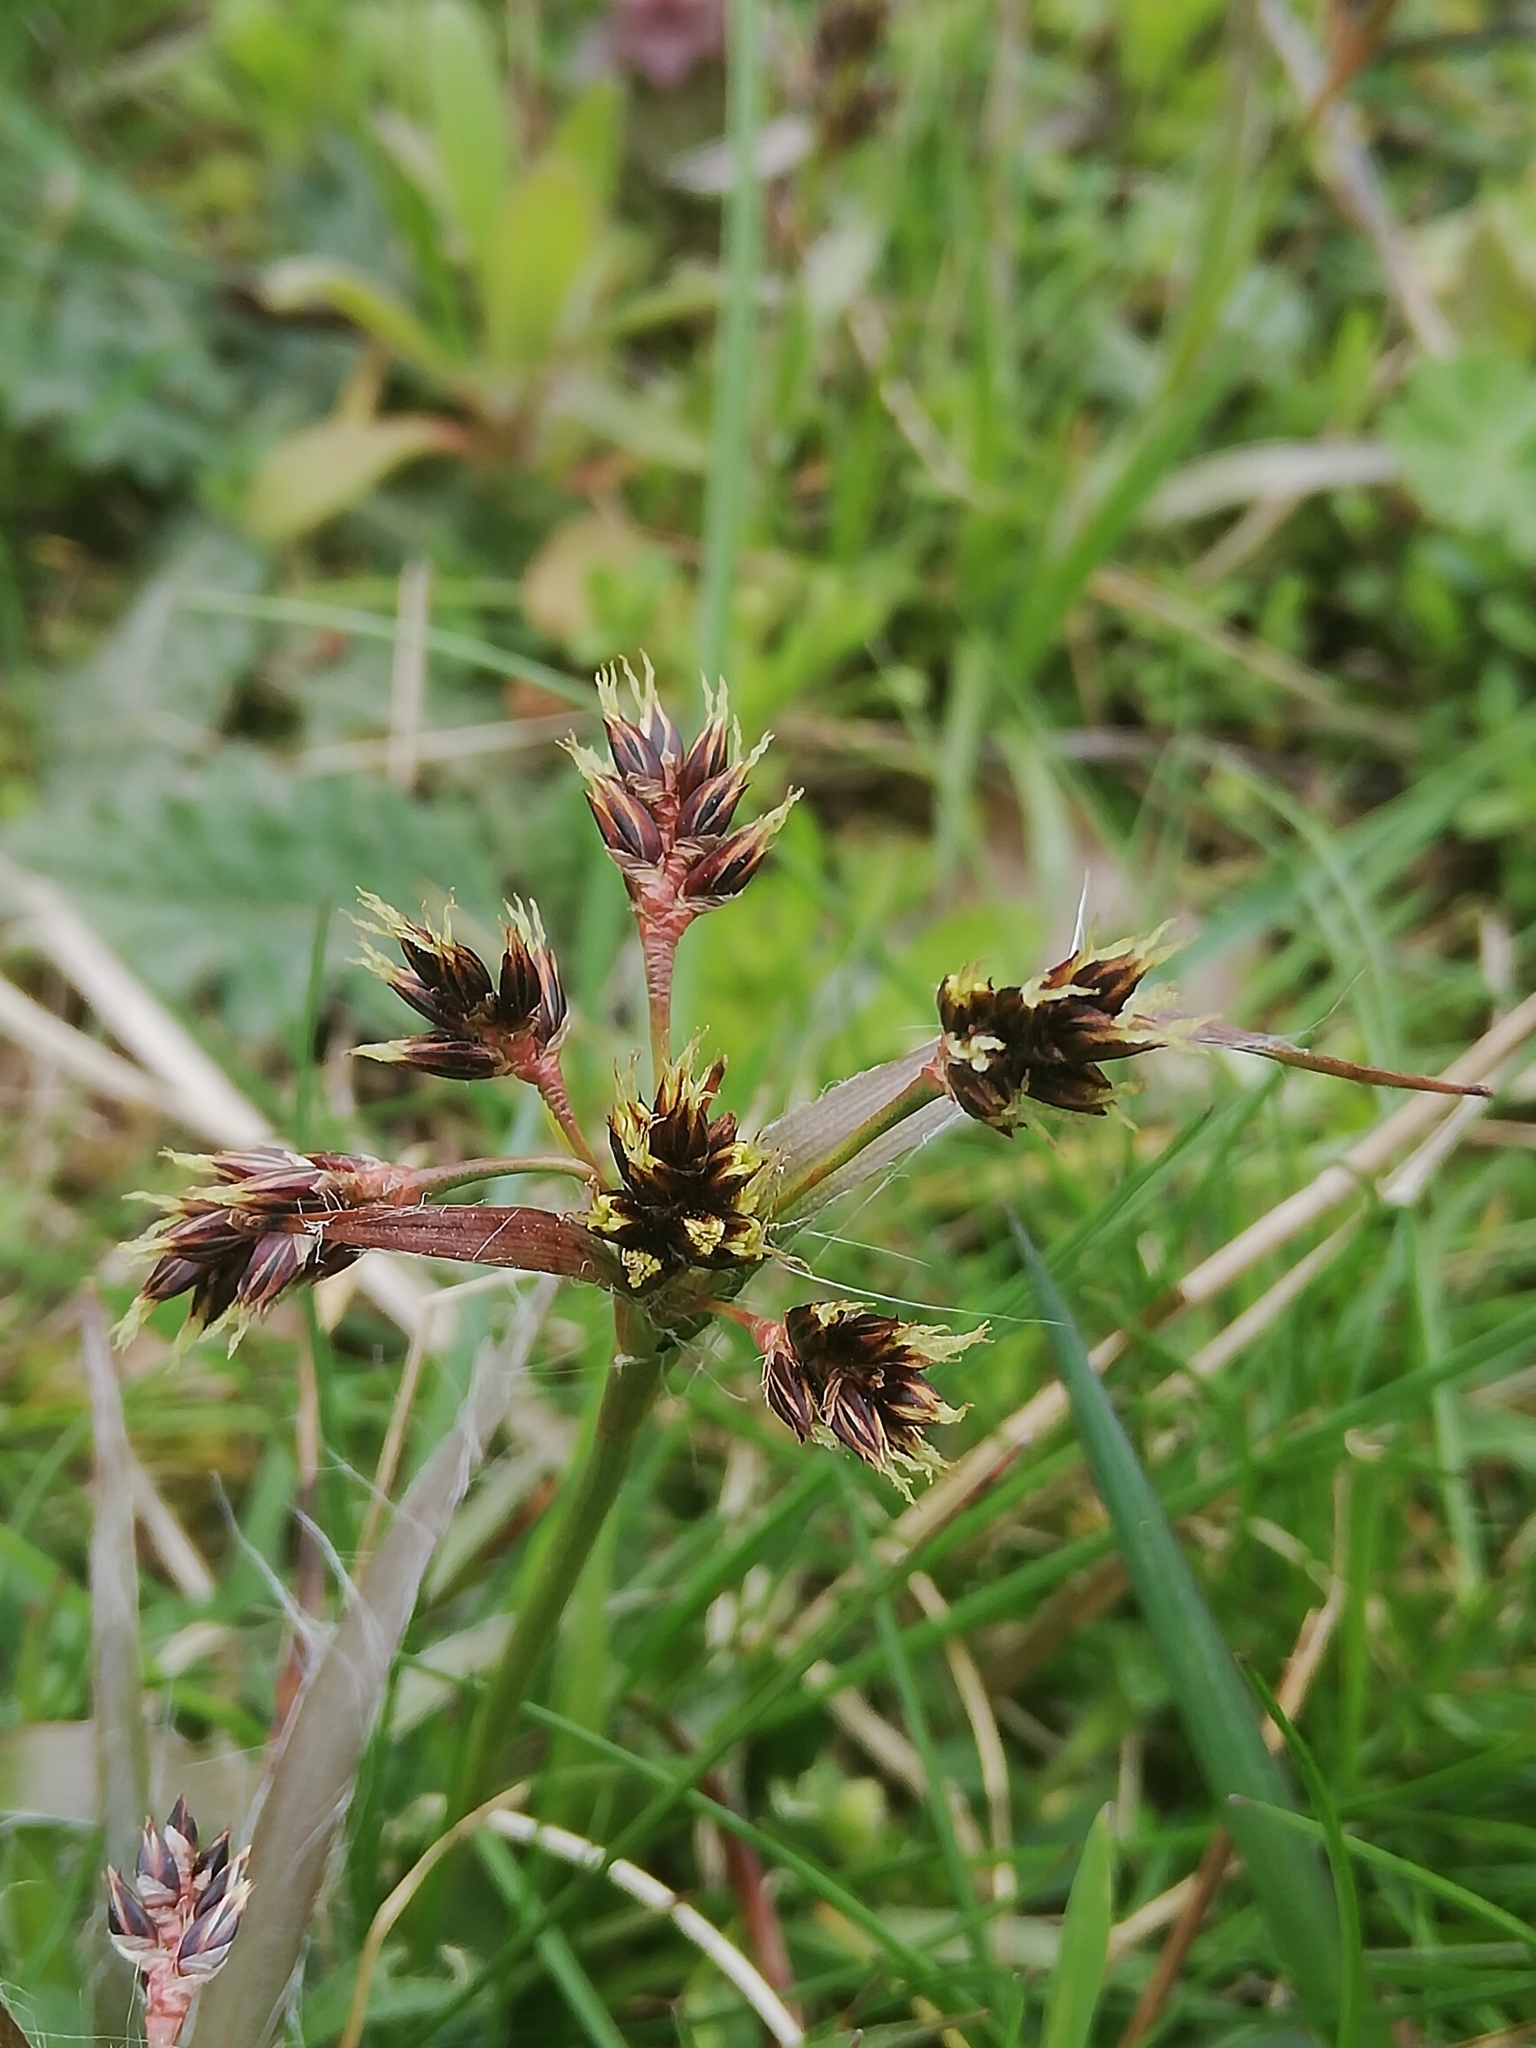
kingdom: Plantae
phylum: Tracheophyta
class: Liliopsida
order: Poales
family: Juncaceae
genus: Luzula
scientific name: Luzula campestris
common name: Field wood-rush
